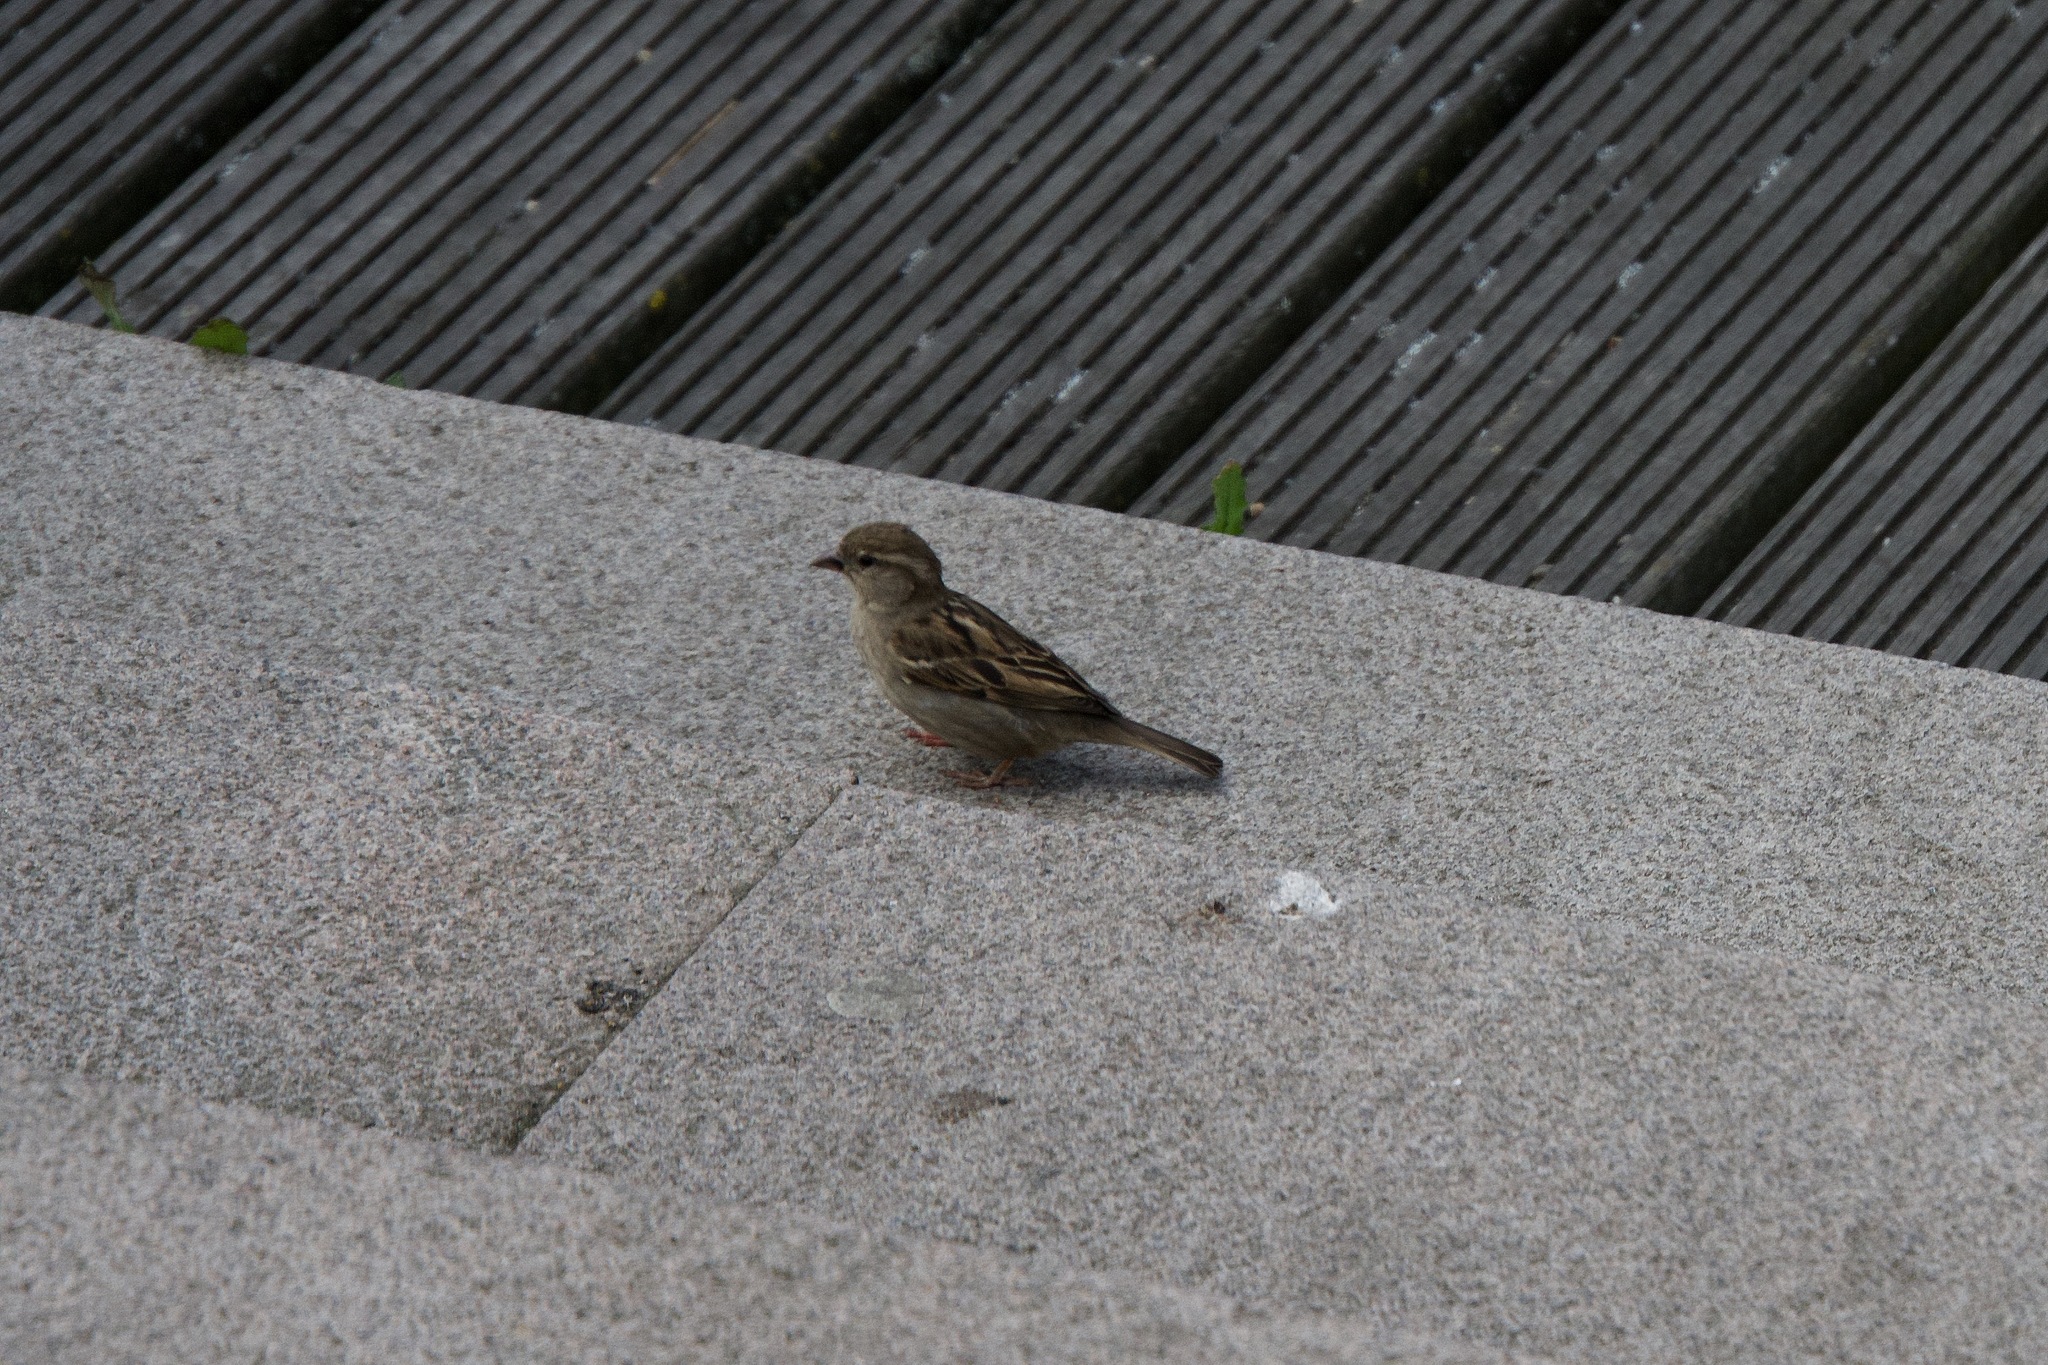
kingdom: Animalia
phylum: Chordata
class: Aves
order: Passeriformes
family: Passeridae
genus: Passer
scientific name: Passer domesticus
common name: House sparrow
